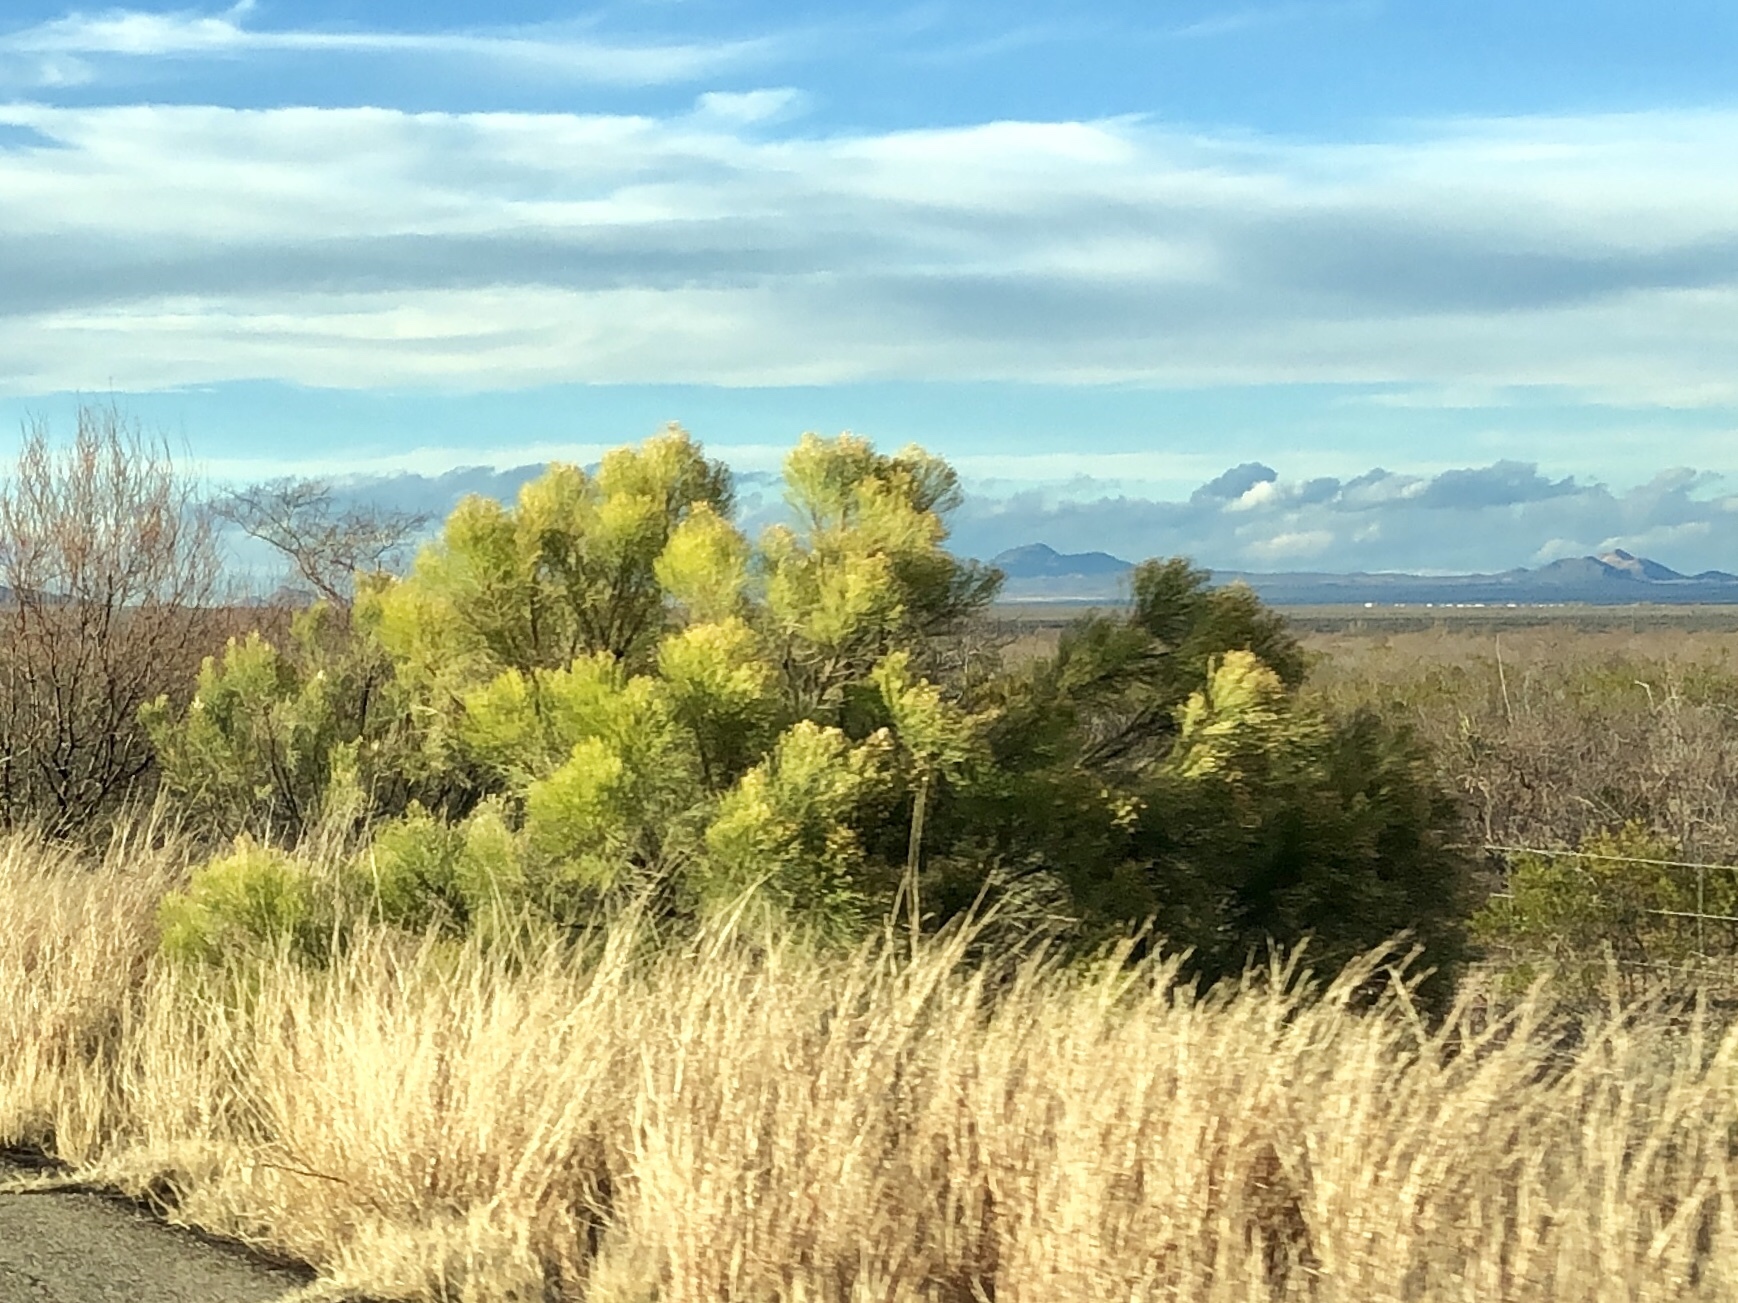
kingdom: Plantae
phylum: Tracheophyta
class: Magnoliopsida
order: Asterales
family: Asteraceae
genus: Baccharis
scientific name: Baccharis sarothroides
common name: Desert-broom
